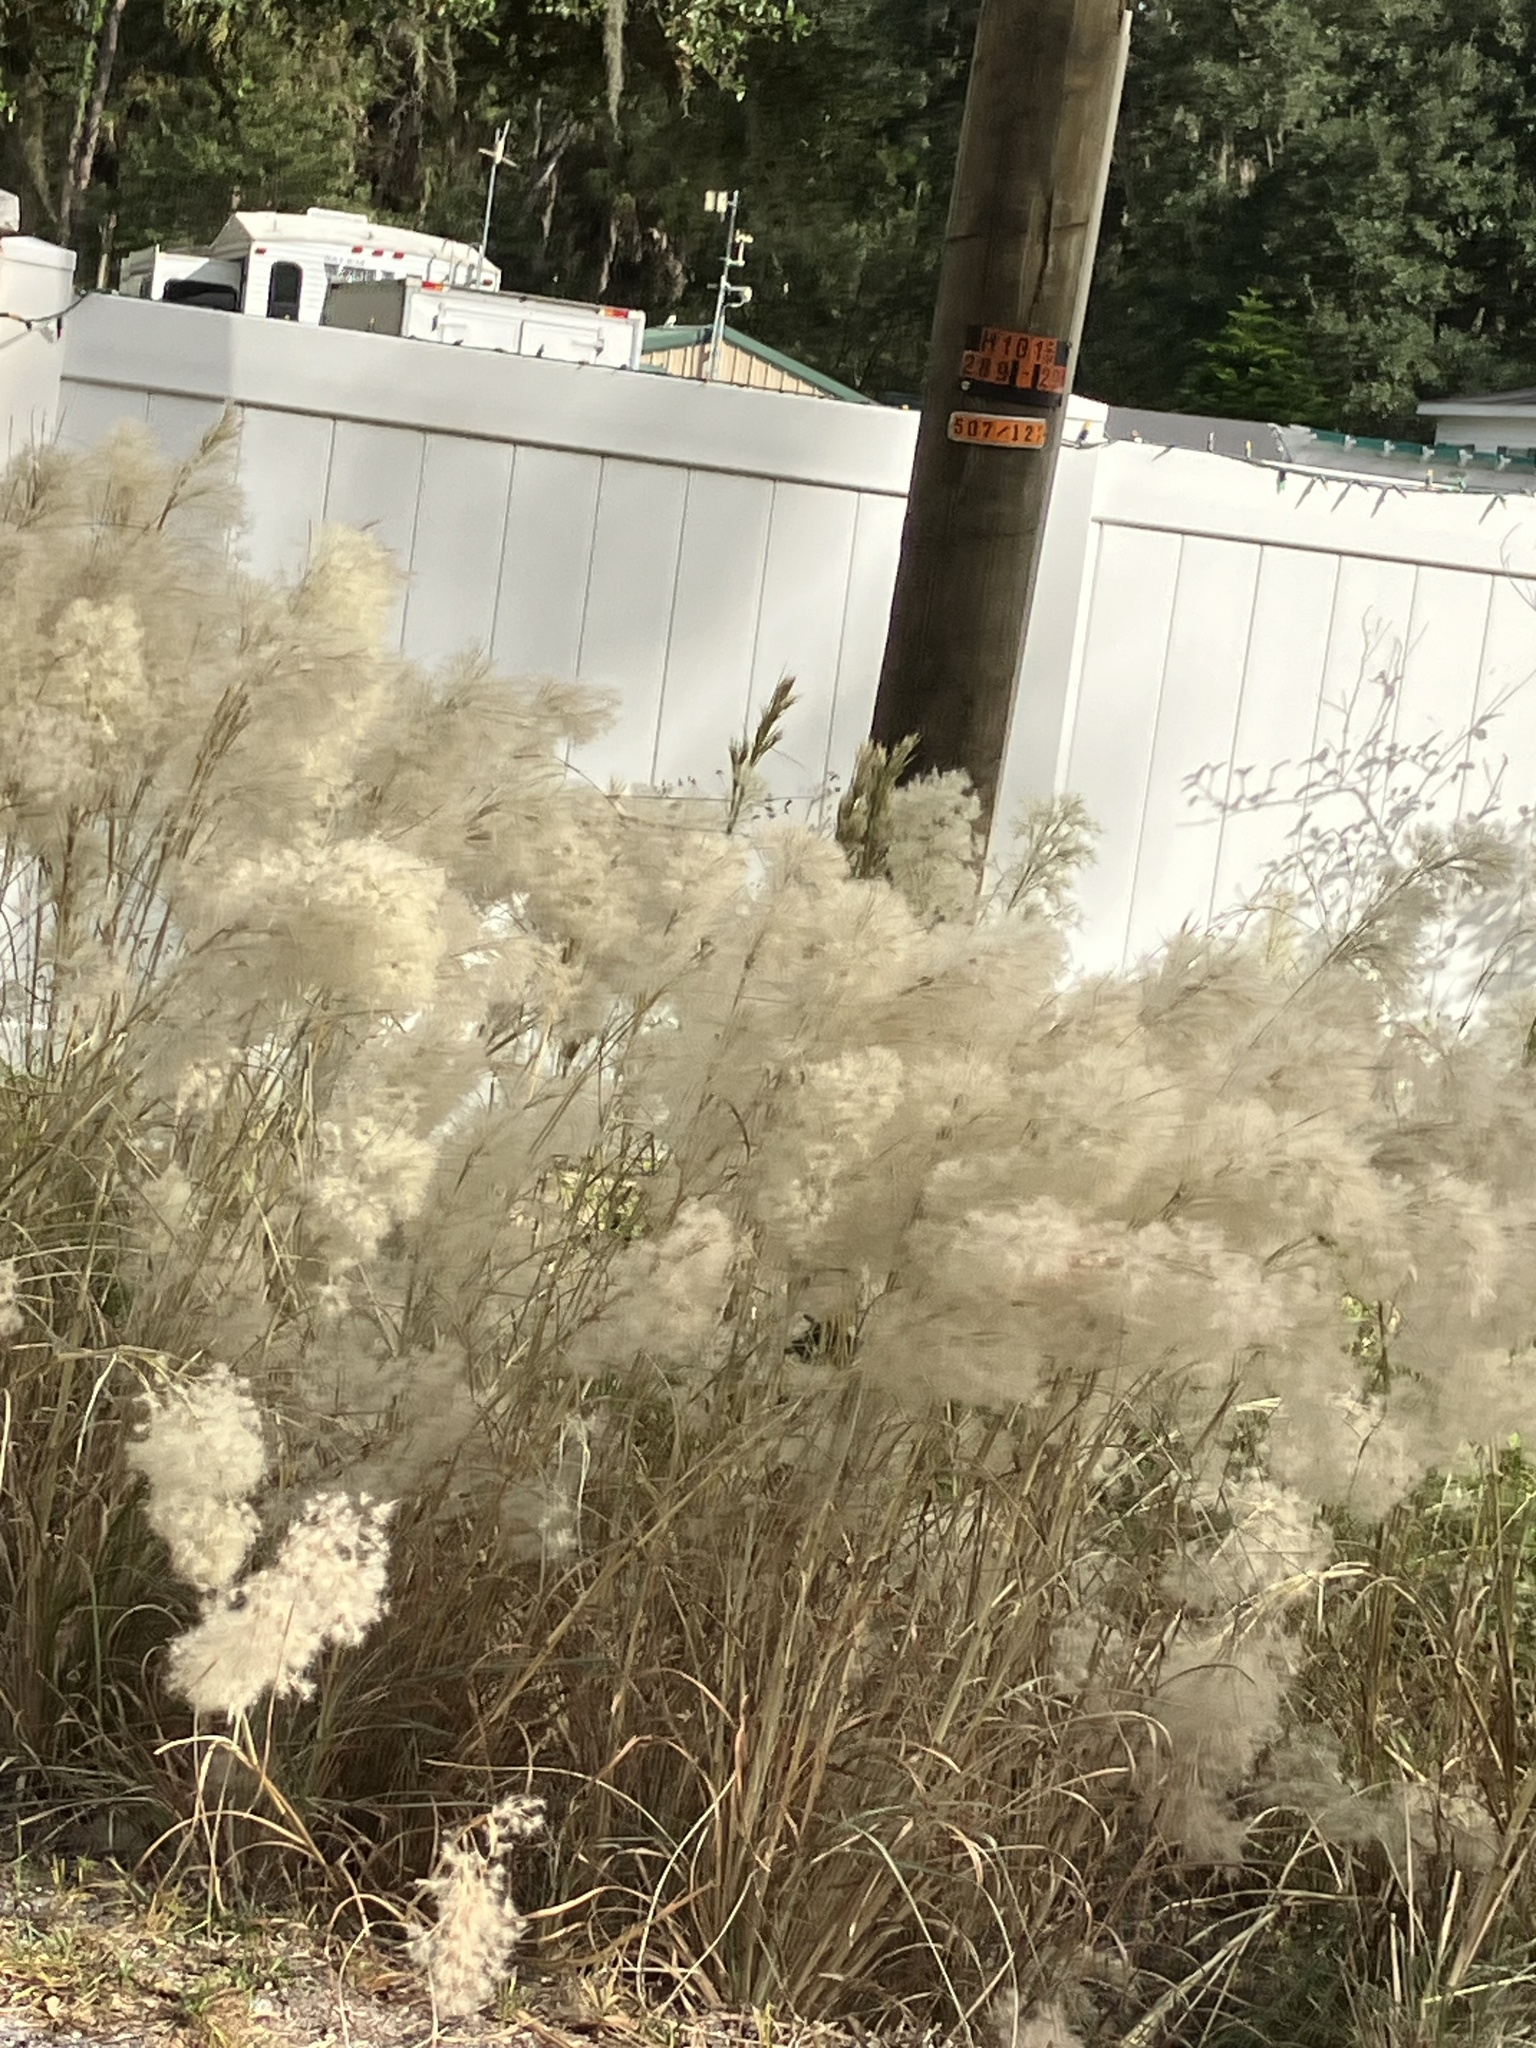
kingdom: Plantae
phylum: Tracheophyta
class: Liliopsida
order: Poales
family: Poaceae
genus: Andropogon
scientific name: Andropogon tenuispatheus
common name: Bushy bluestem
